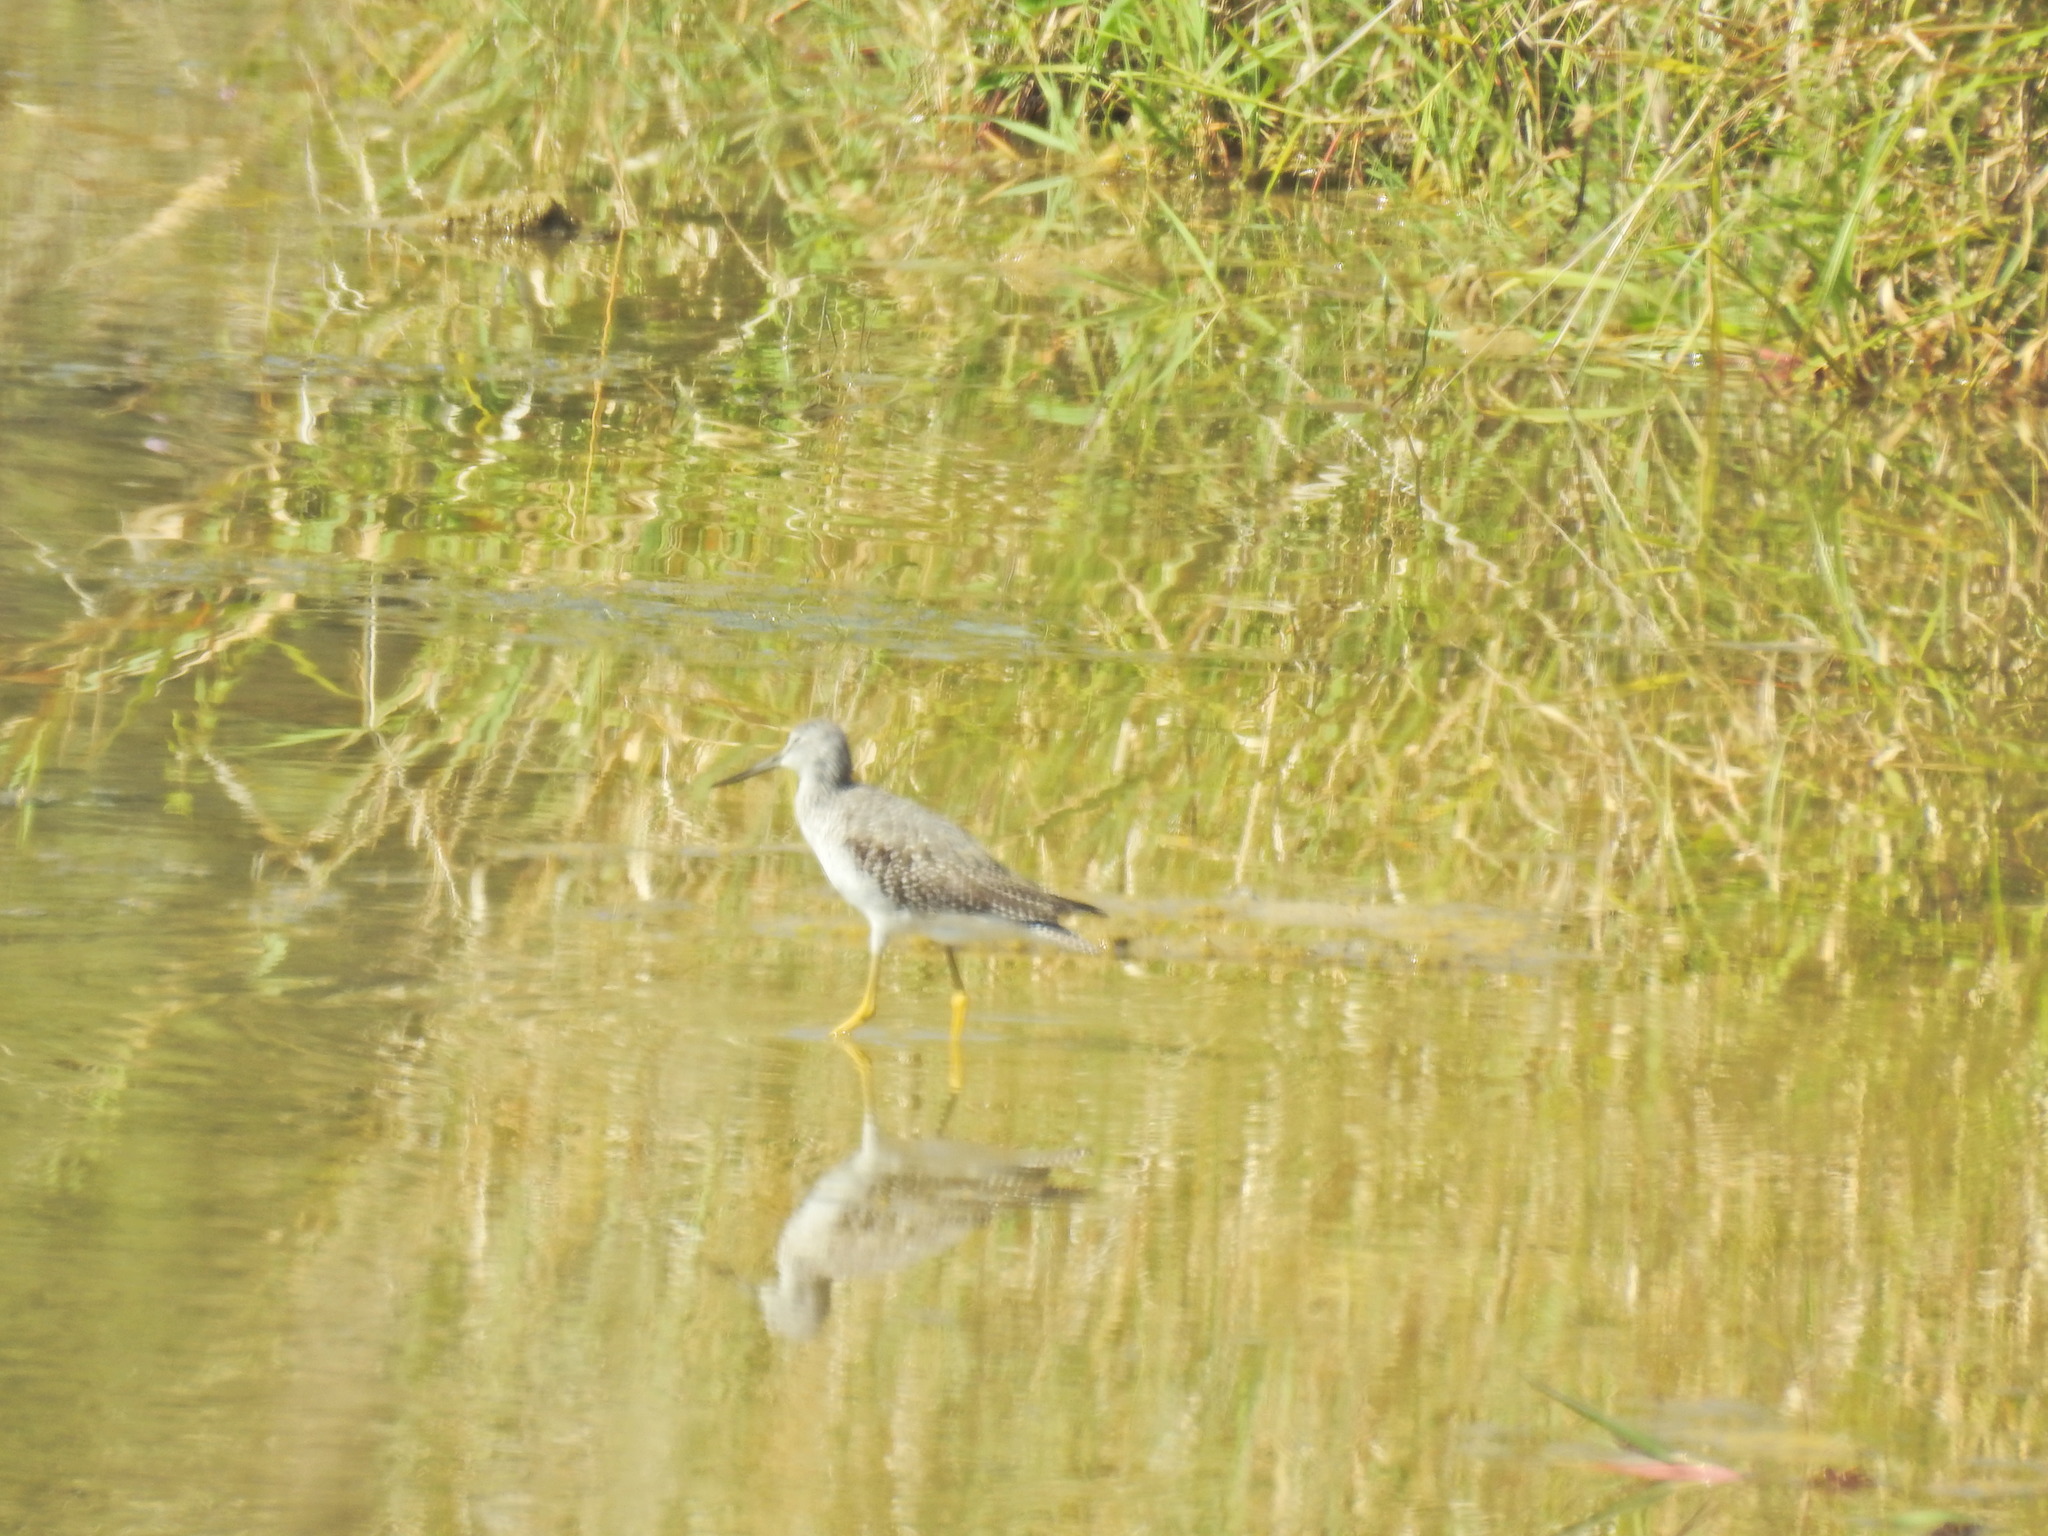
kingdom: Animalia
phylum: Chordata
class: Aves
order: Charadriiformes
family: Scolopacidae
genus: Tringa
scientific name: Tringa melanoleuca
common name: Greater yellowlegs
